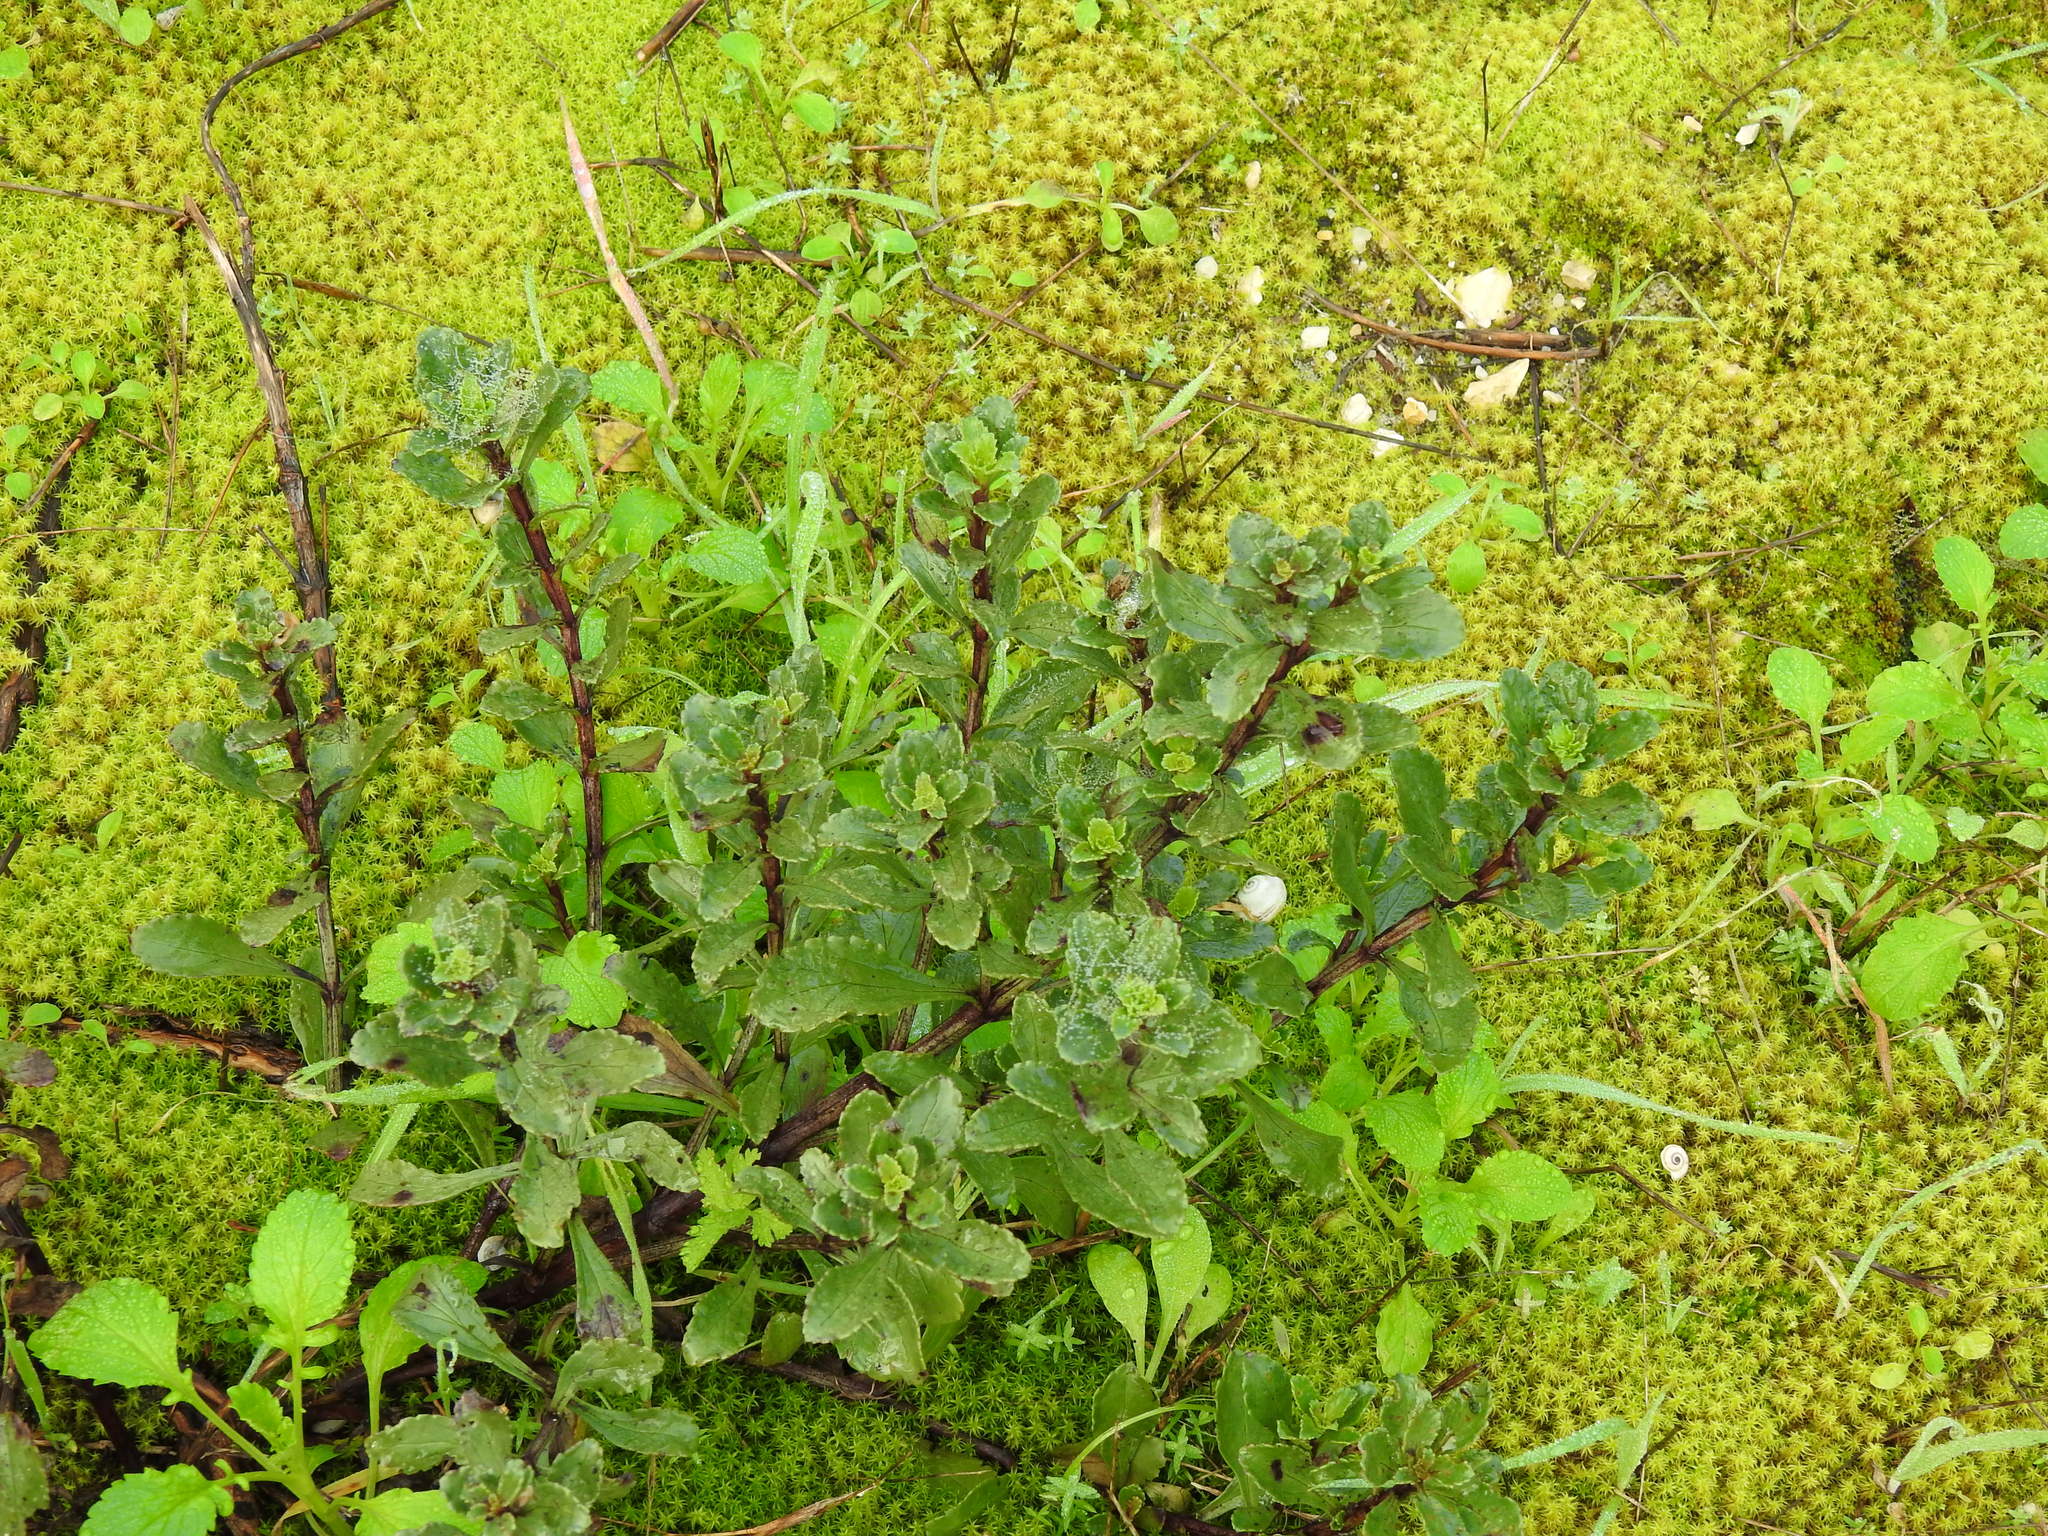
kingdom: Plantae
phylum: Tracheophyta
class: Magnoliopsida
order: Lamiales
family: Scrophulariaceae
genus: Scrophularia
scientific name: Scrophularia frutescens
